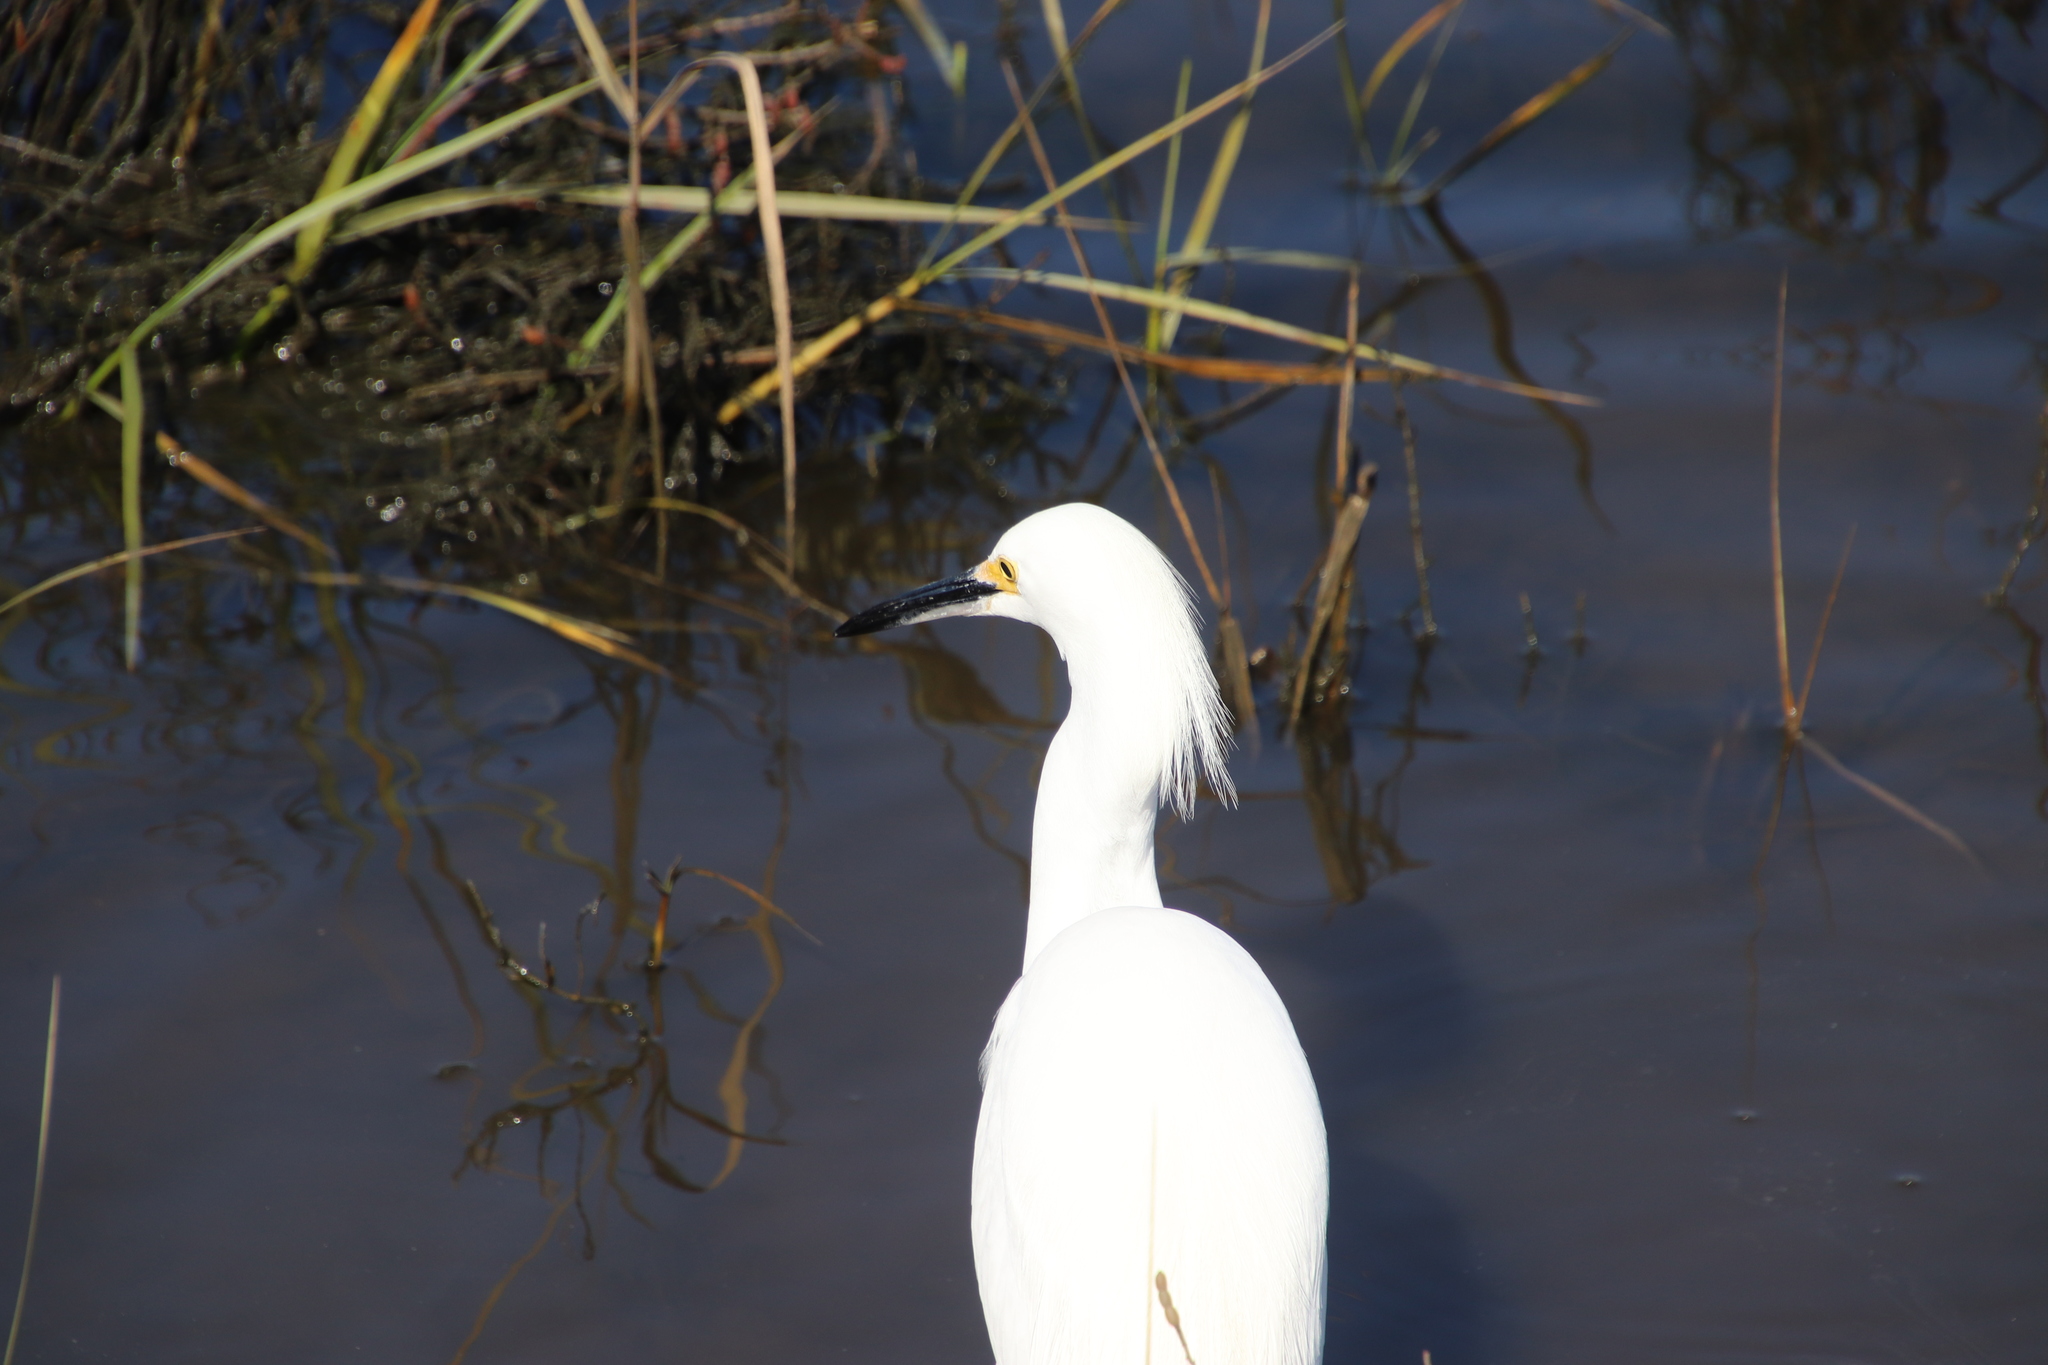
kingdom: Animalia
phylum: Chordata
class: Aves
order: Pelecaniformes
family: Ardeidae
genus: Egretta
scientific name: Egretta thula
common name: Snowy egret
